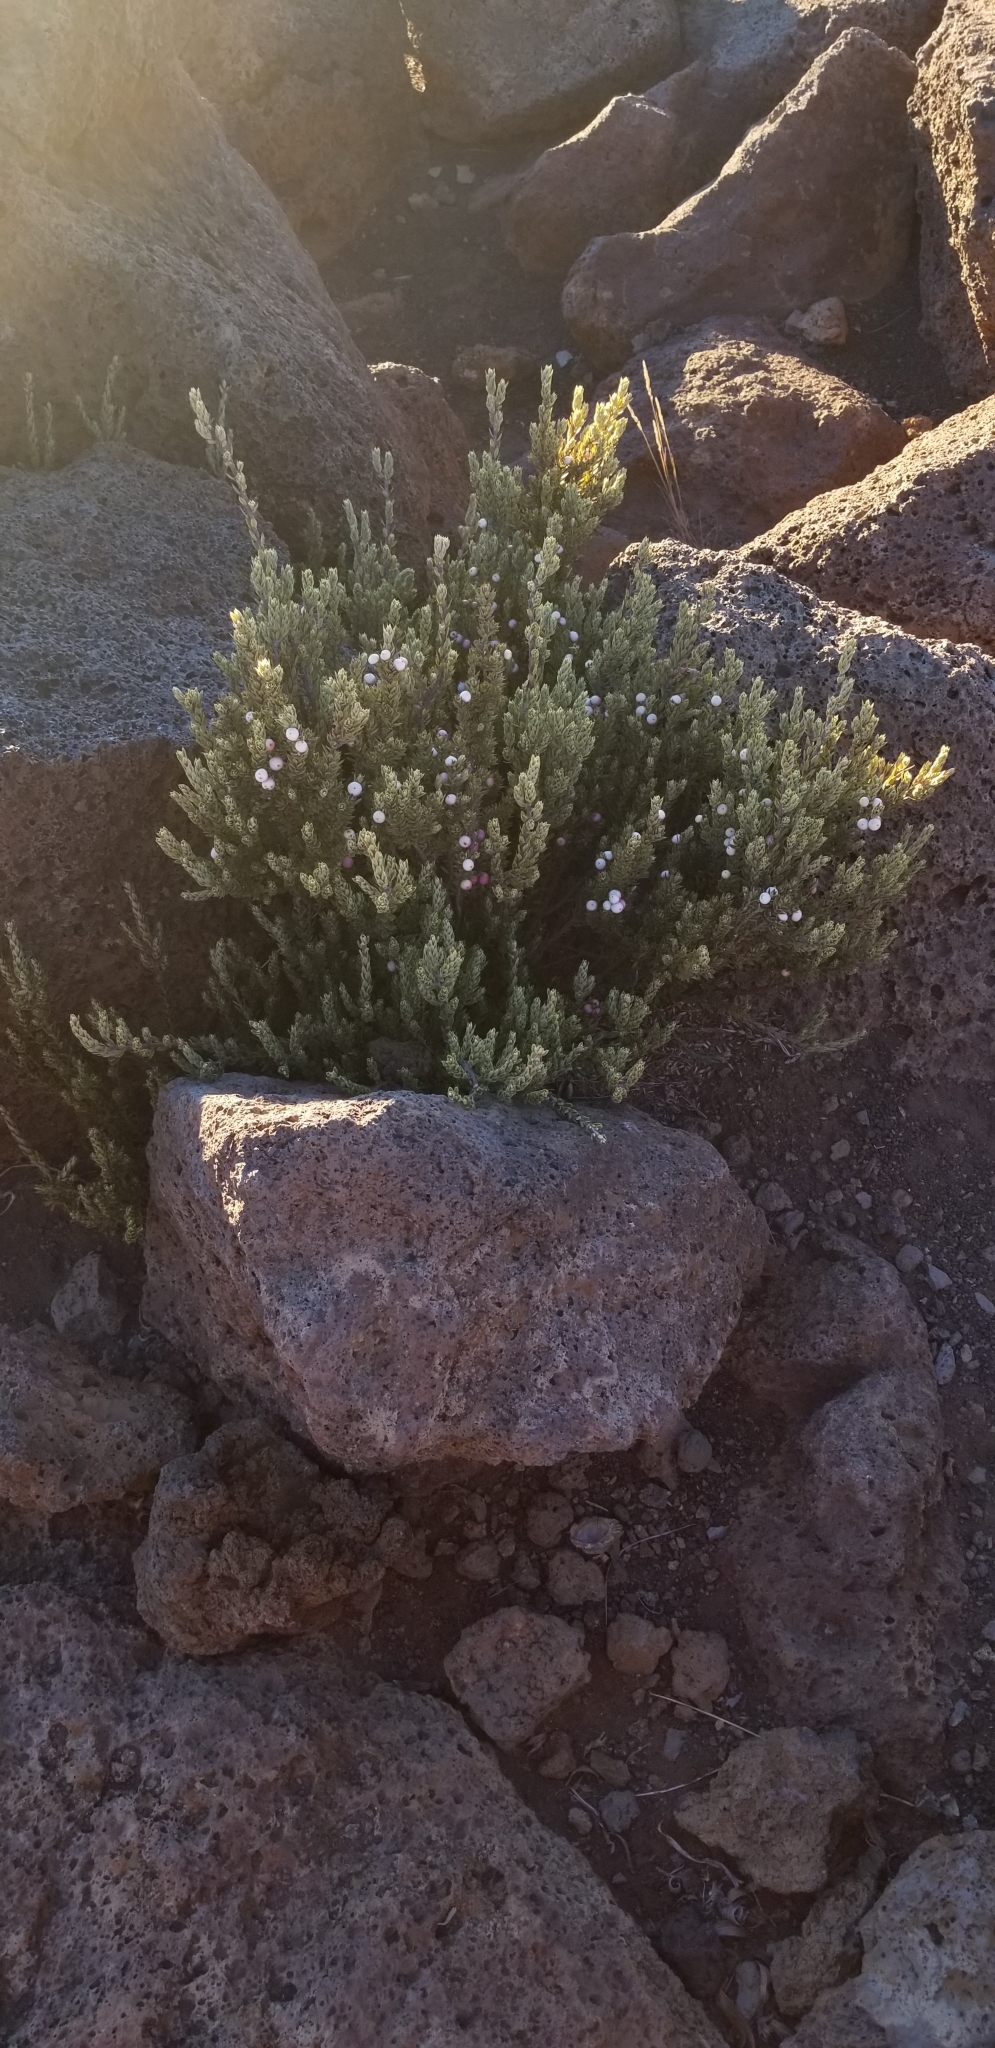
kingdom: Plantae
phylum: Tracheophyta
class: Magnoliopsida
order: Ericales
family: Ericaceae
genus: Leptecophylla
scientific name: Leptecophylla tameiameiae
